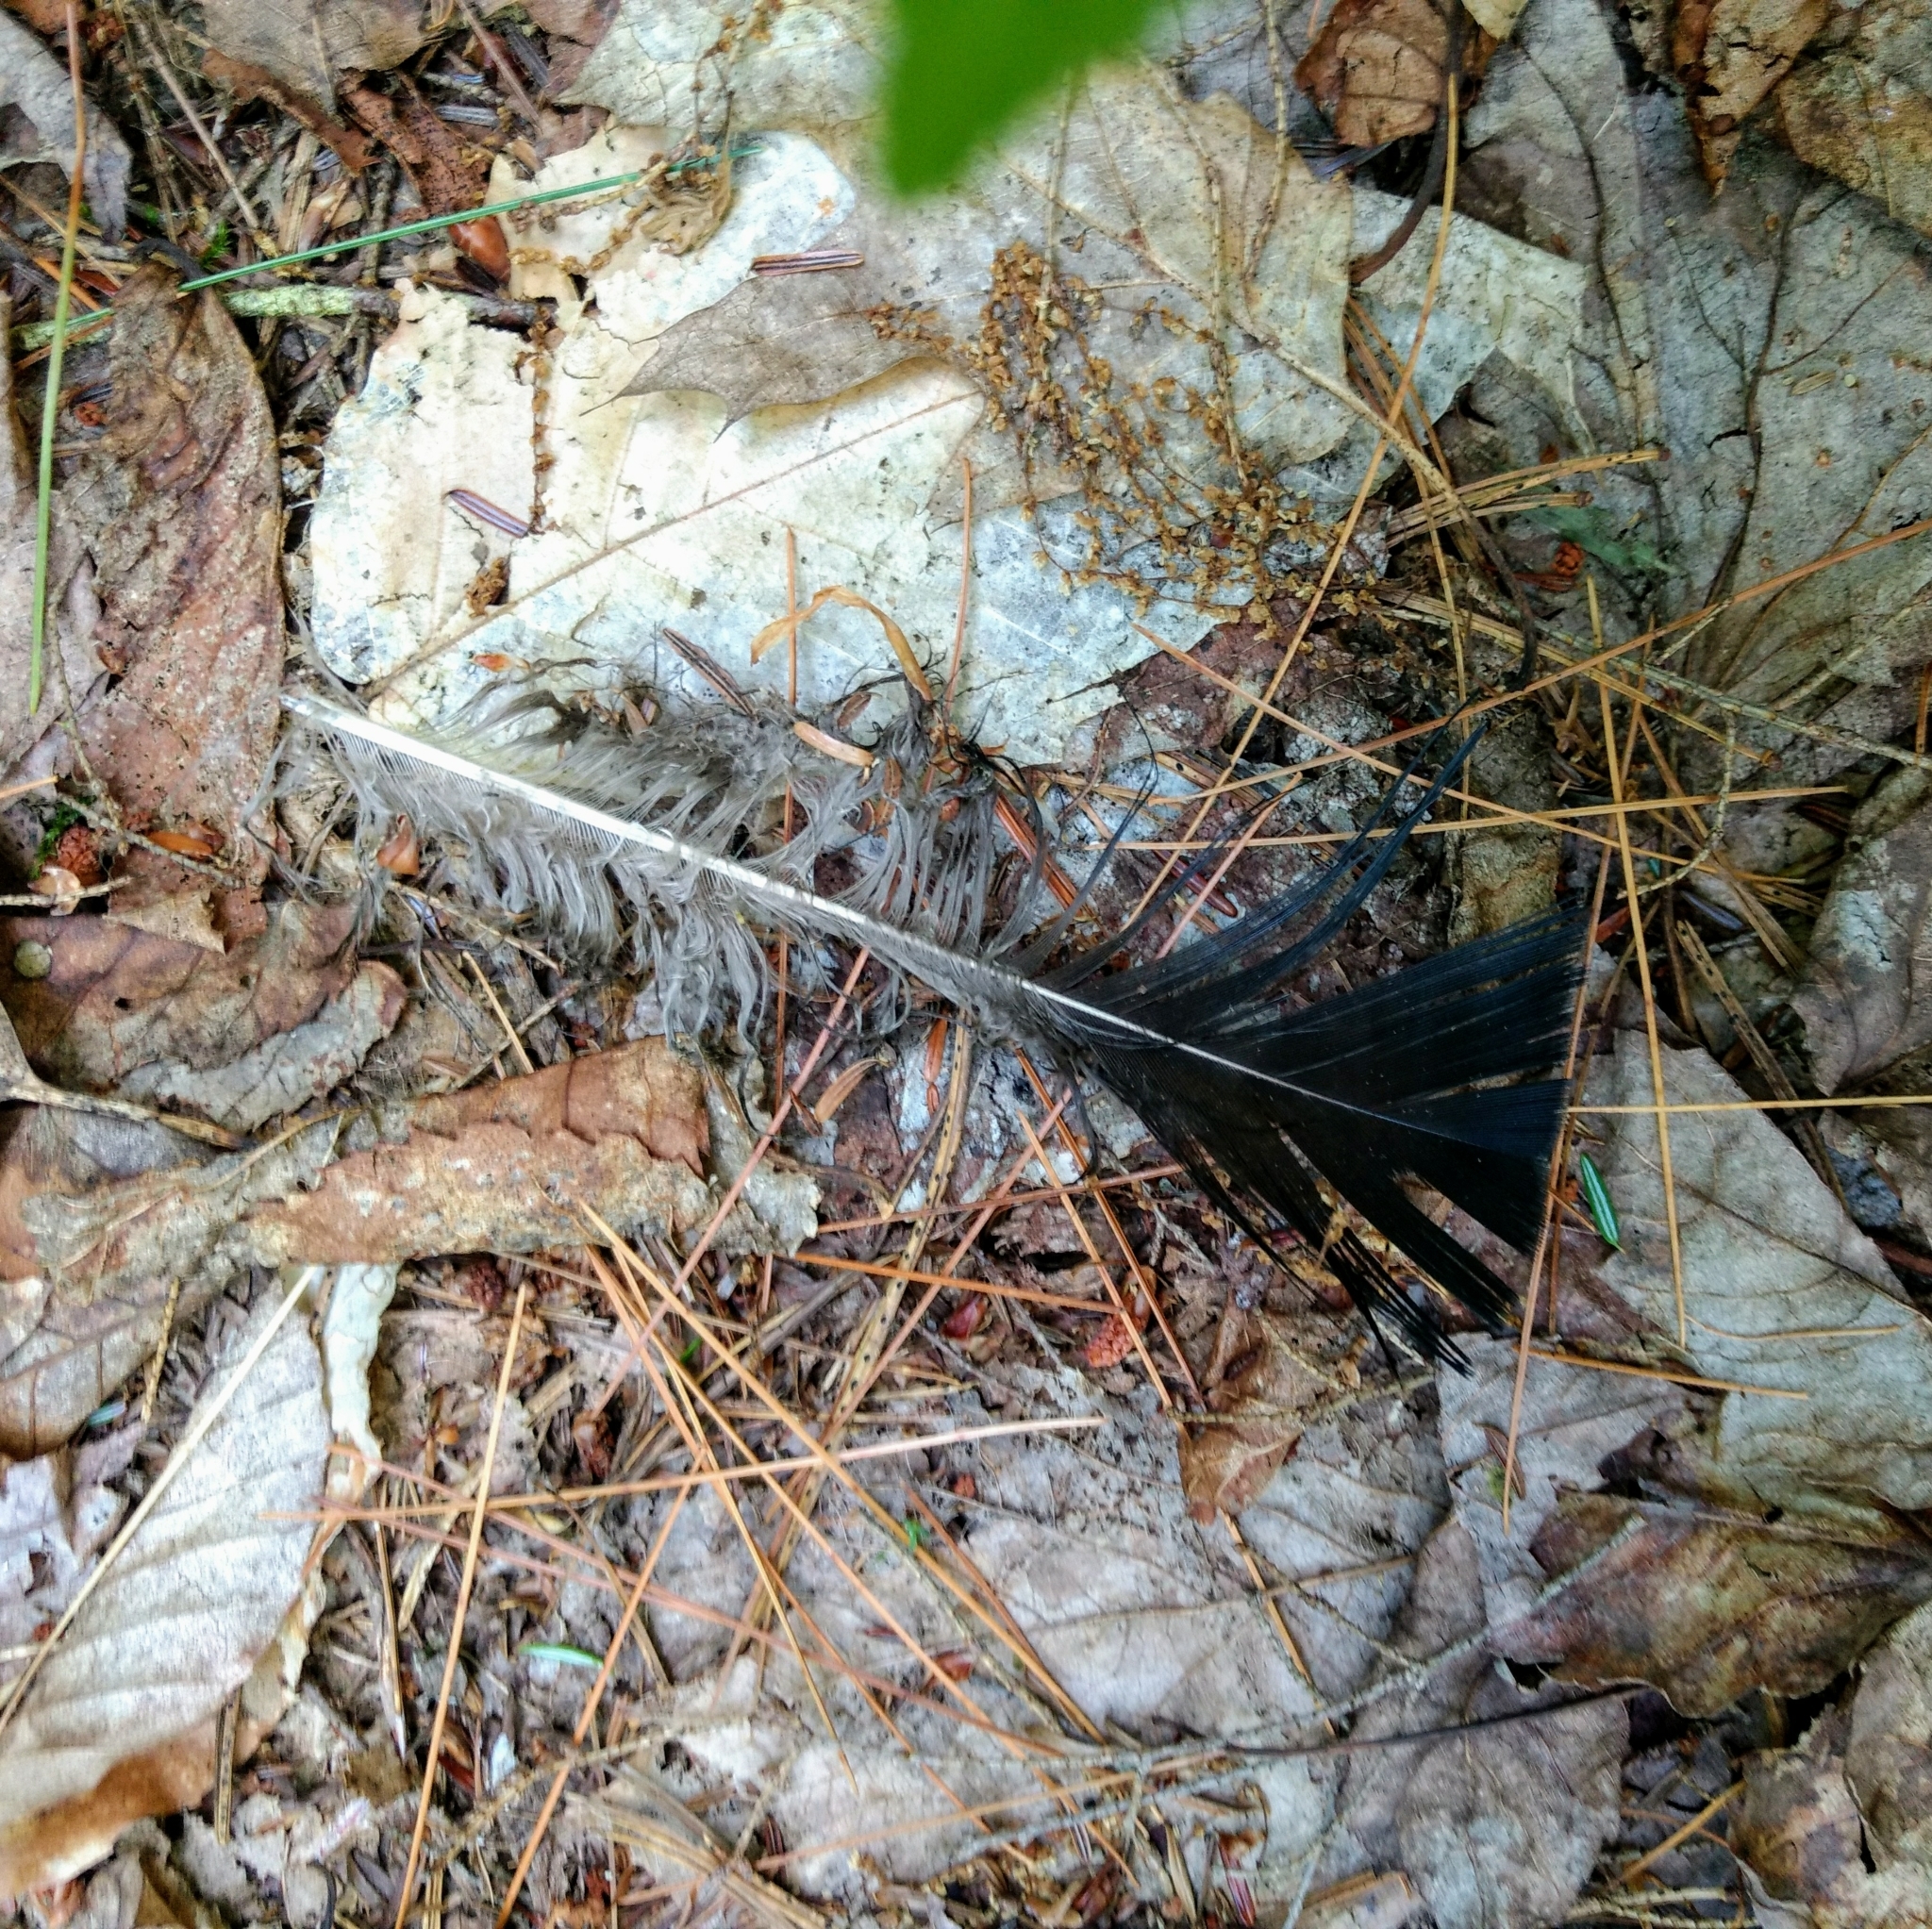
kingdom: Animalia
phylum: Chordata
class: Aves
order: Galliformes
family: Phasianidae
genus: Meleagris
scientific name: Meleagris gallopavo
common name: Wild turkey
